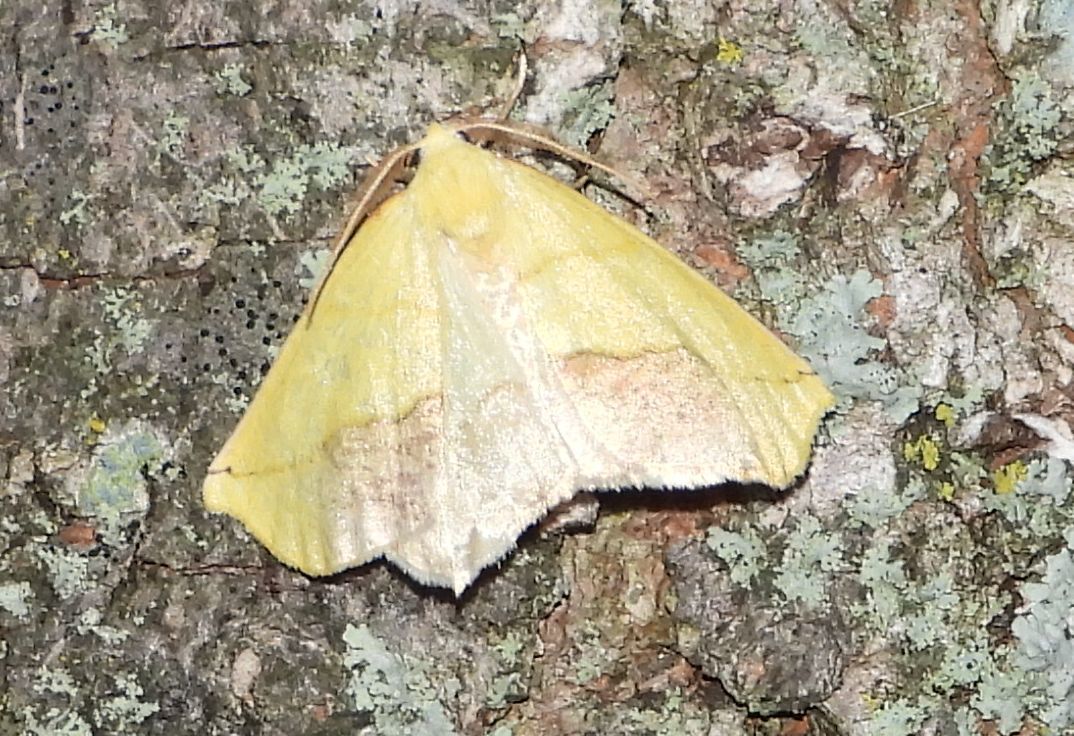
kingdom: Animalia
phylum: Arthropoda
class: Insecta
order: Lepidoptera
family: Geometridae
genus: Sicya
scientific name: Sicya macularia
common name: Sharp-lined yellow
